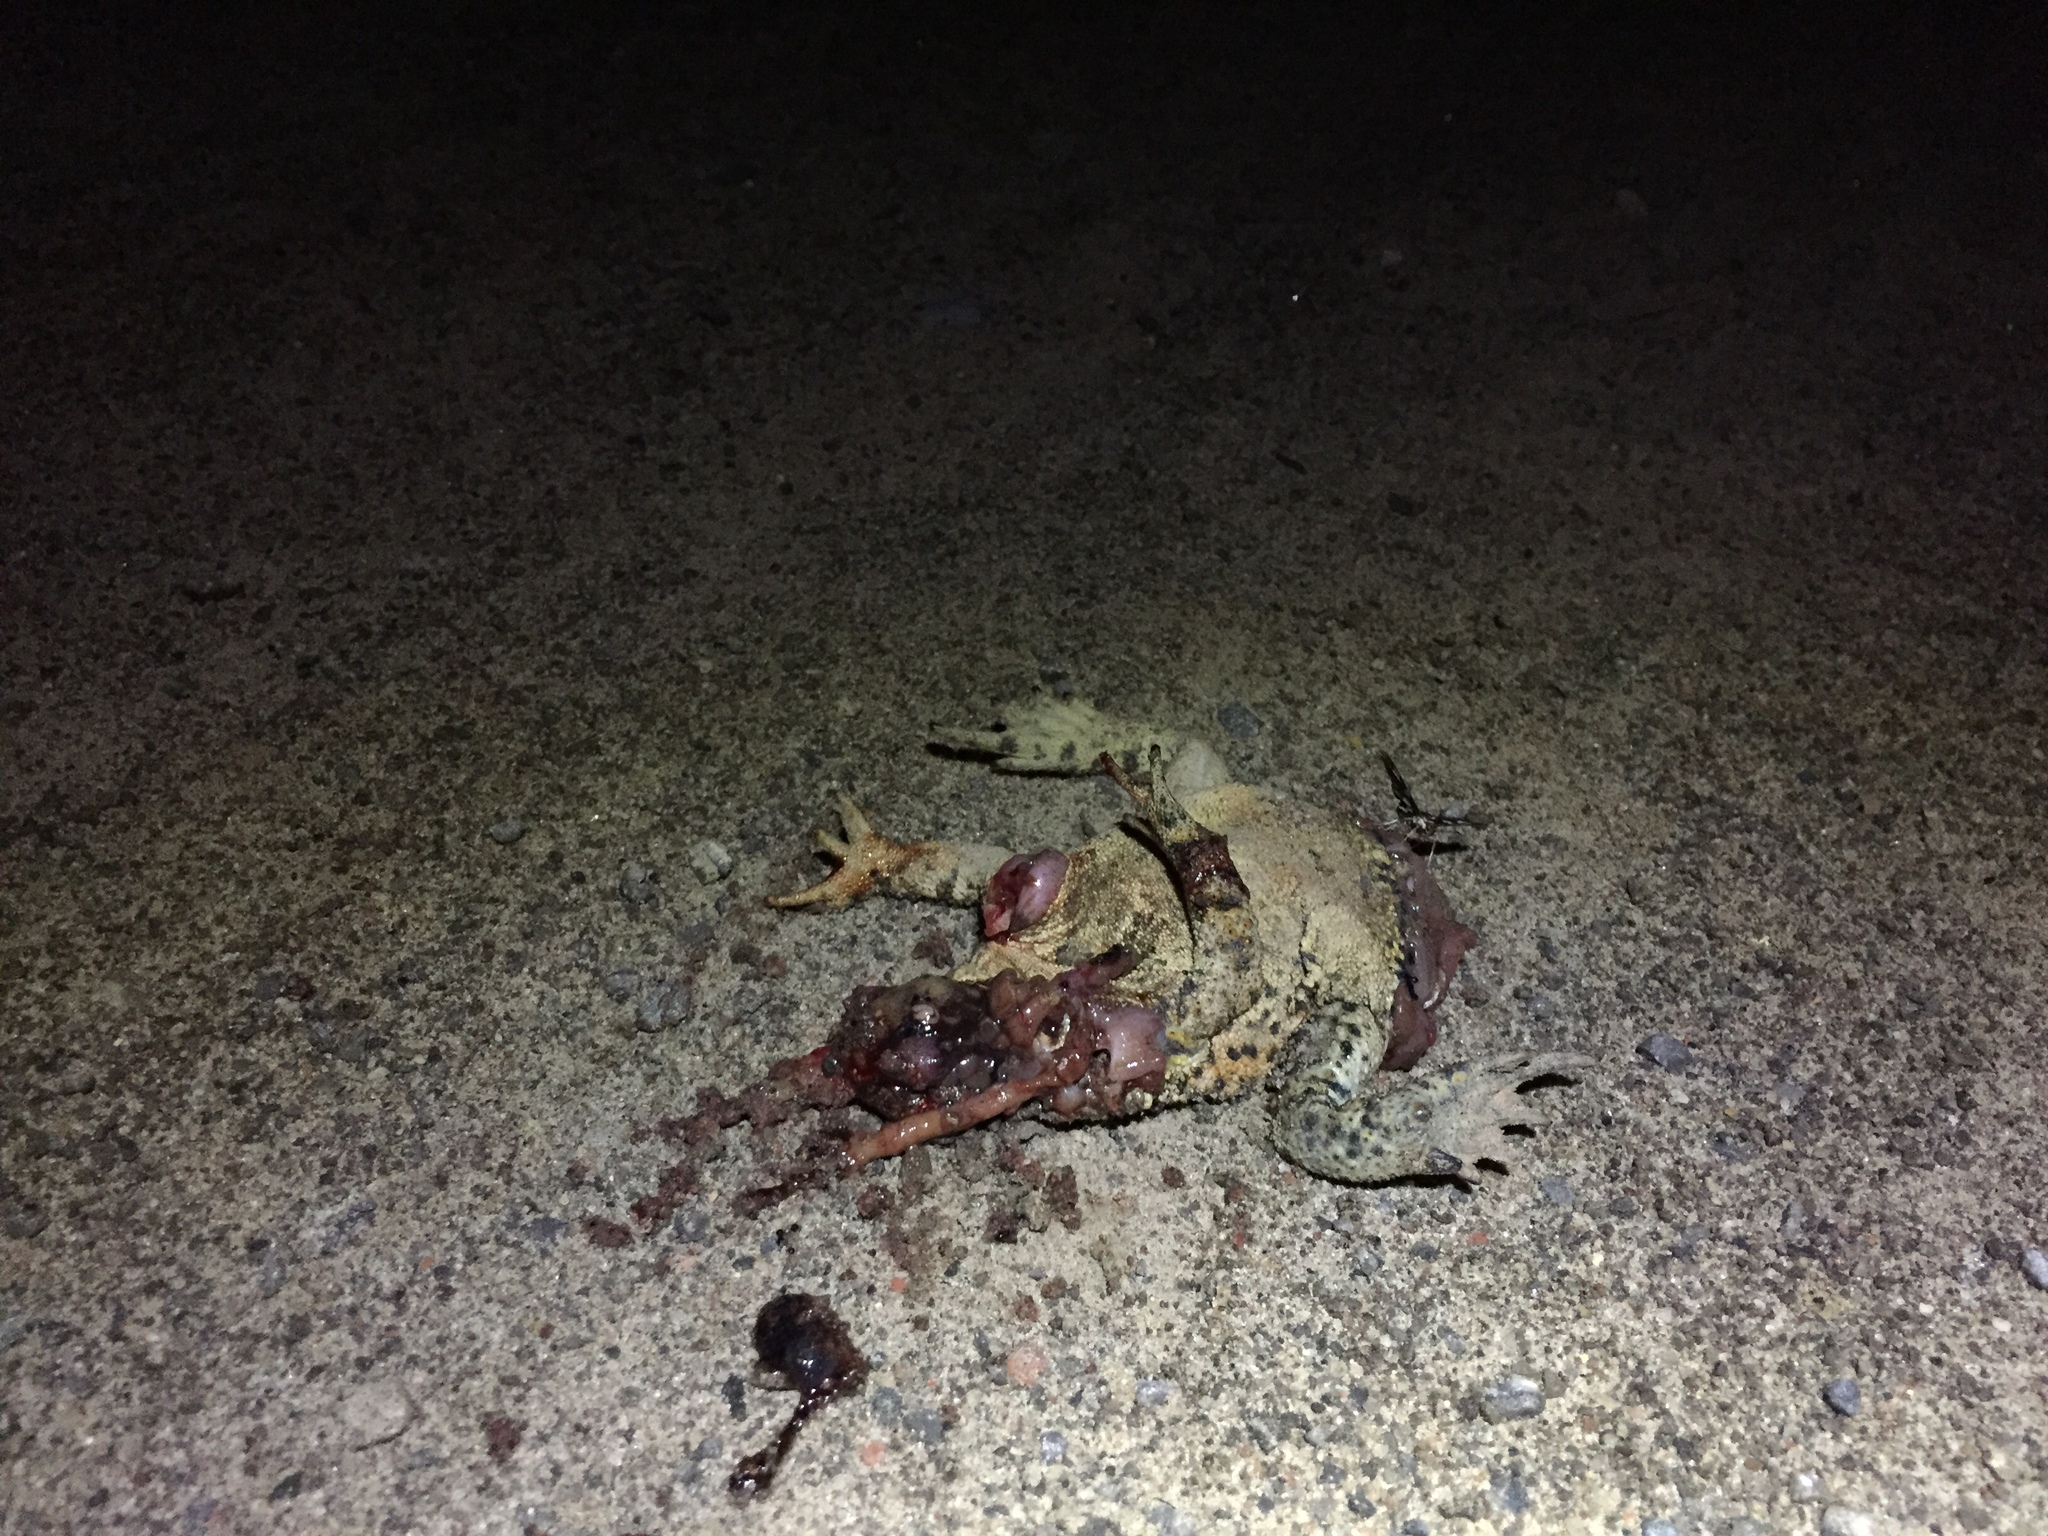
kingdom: Animalia
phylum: Chordata
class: Amphibia
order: Anura
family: Bufonidae
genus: Anaxyrus
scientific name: Anaxyrus americanus
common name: American toad
